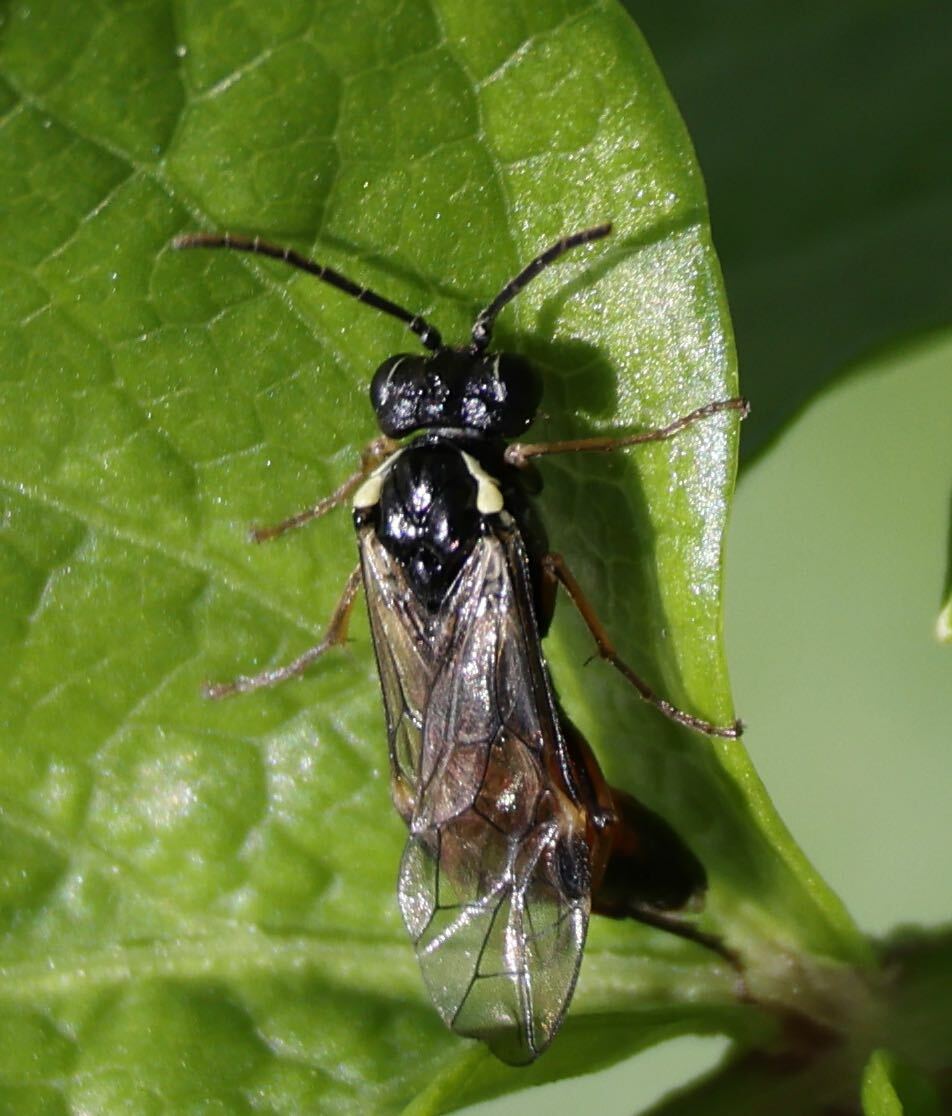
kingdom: Animalia
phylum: Arthropoda
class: Insecta
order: Hymenoptera
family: Tenthredinidae
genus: Aglaostigma
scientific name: Aglaostigma aucupariae
